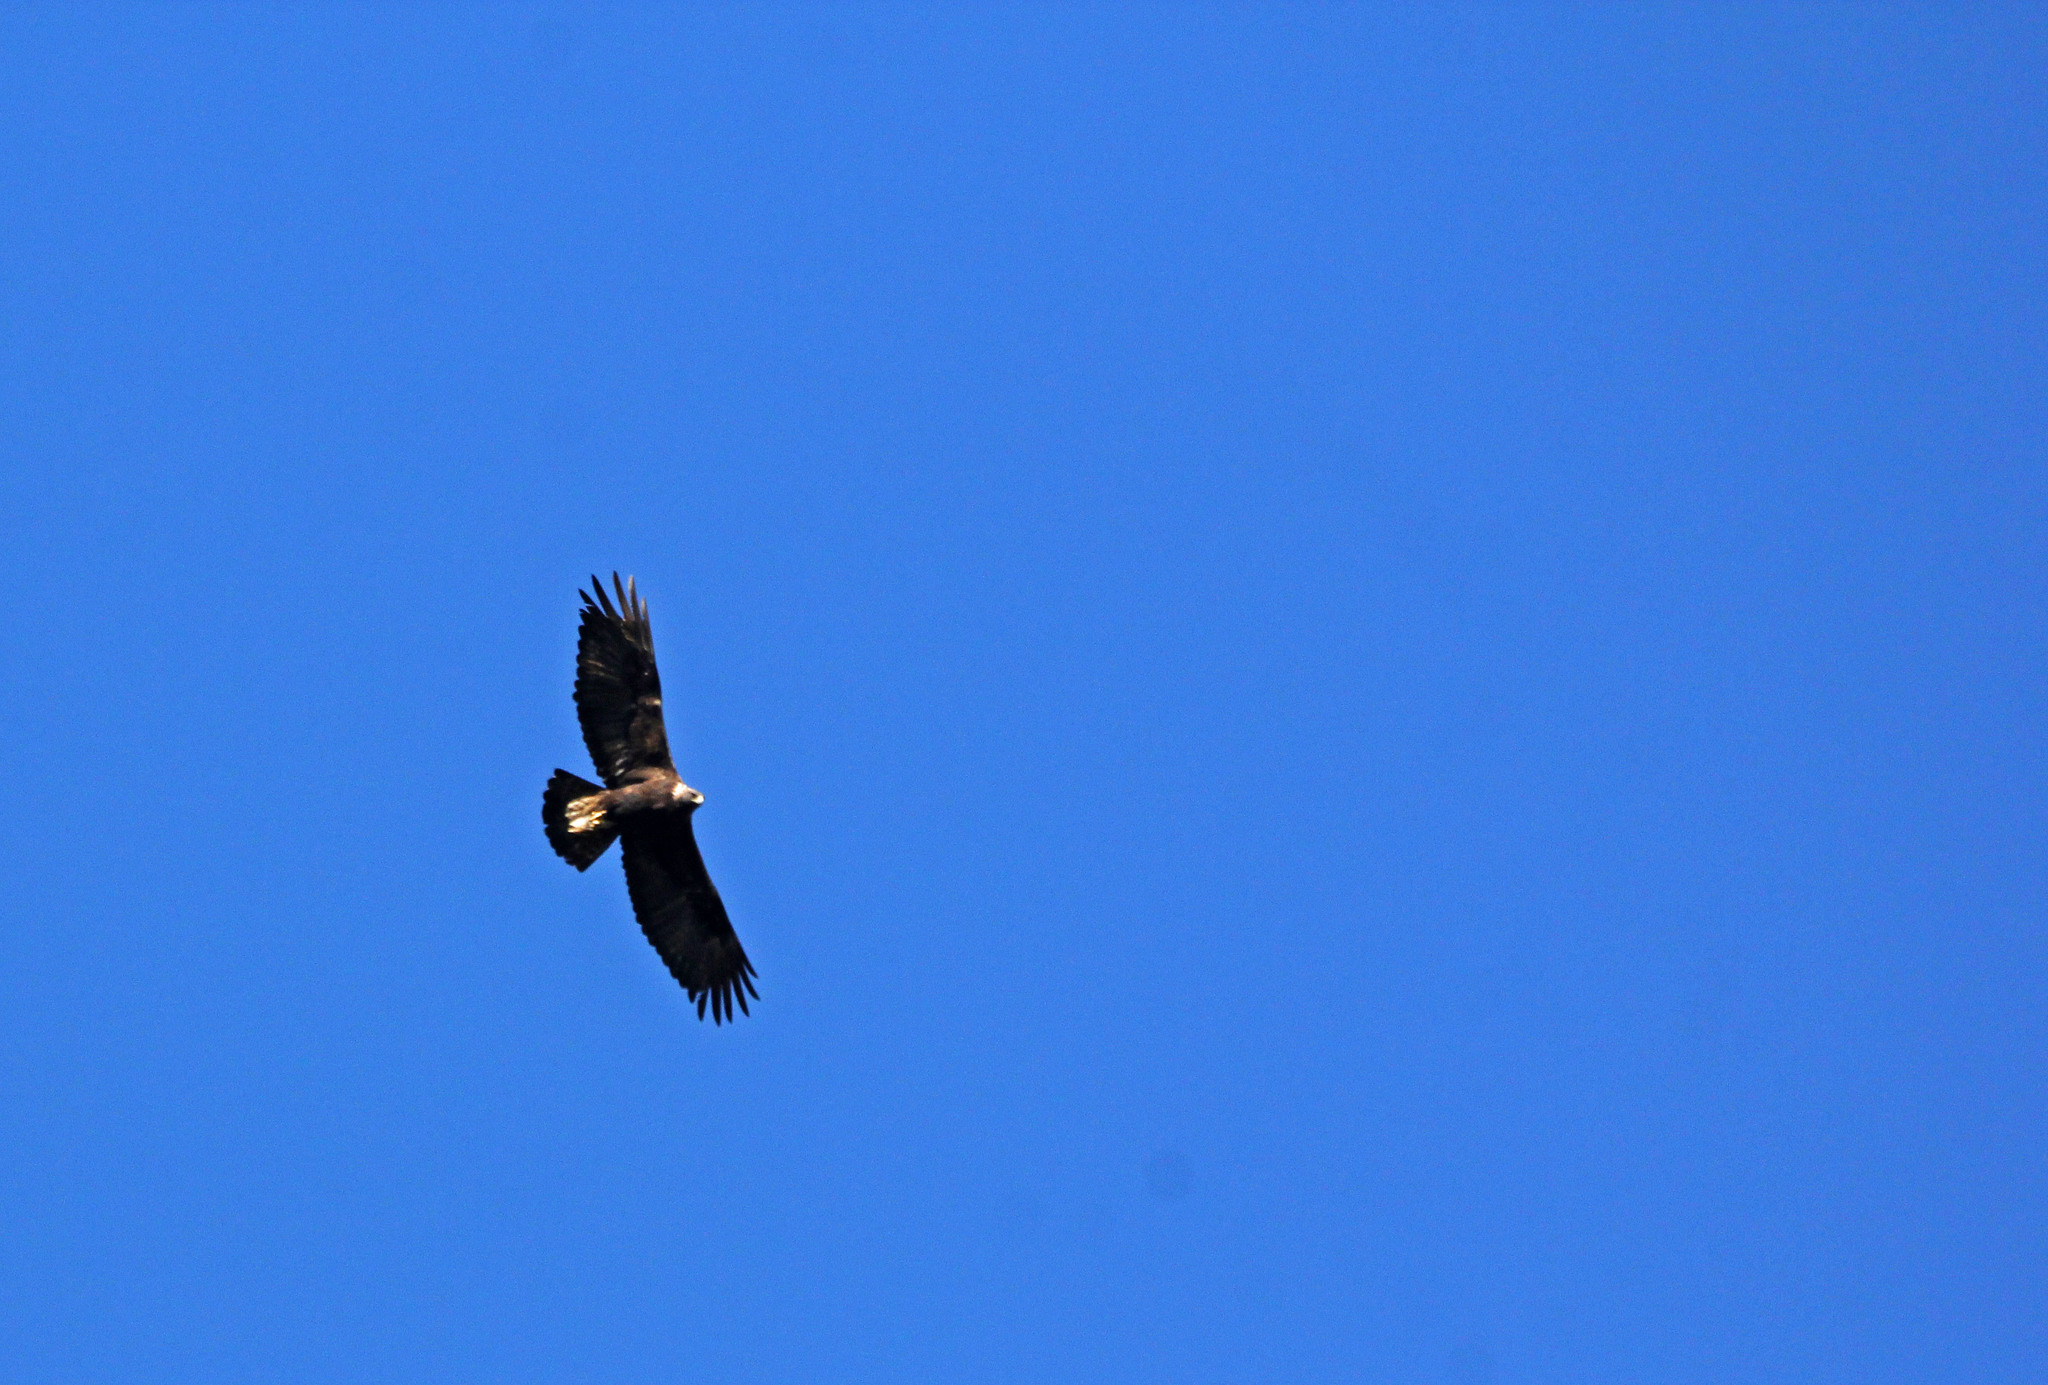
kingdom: Animalia
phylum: Chordata
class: Aves
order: Accipitriformes
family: Accipitridae
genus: Aquila
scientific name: Aquila chrysaetos
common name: Golden eagle
